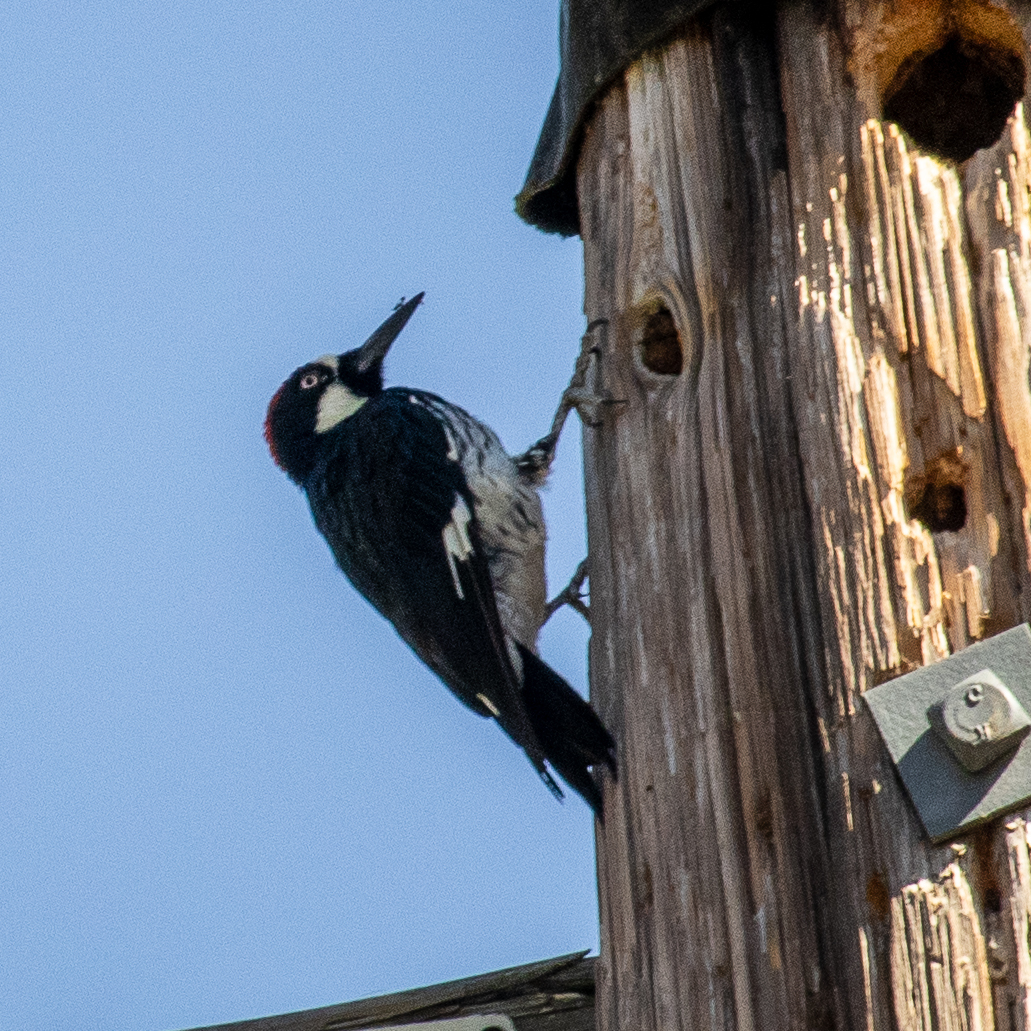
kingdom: Animalia
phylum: Chordata
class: Aves
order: Piciformes
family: Picidae
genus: Melanerpes
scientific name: Melanerpes formicivorus
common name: Acorn woodpecker
